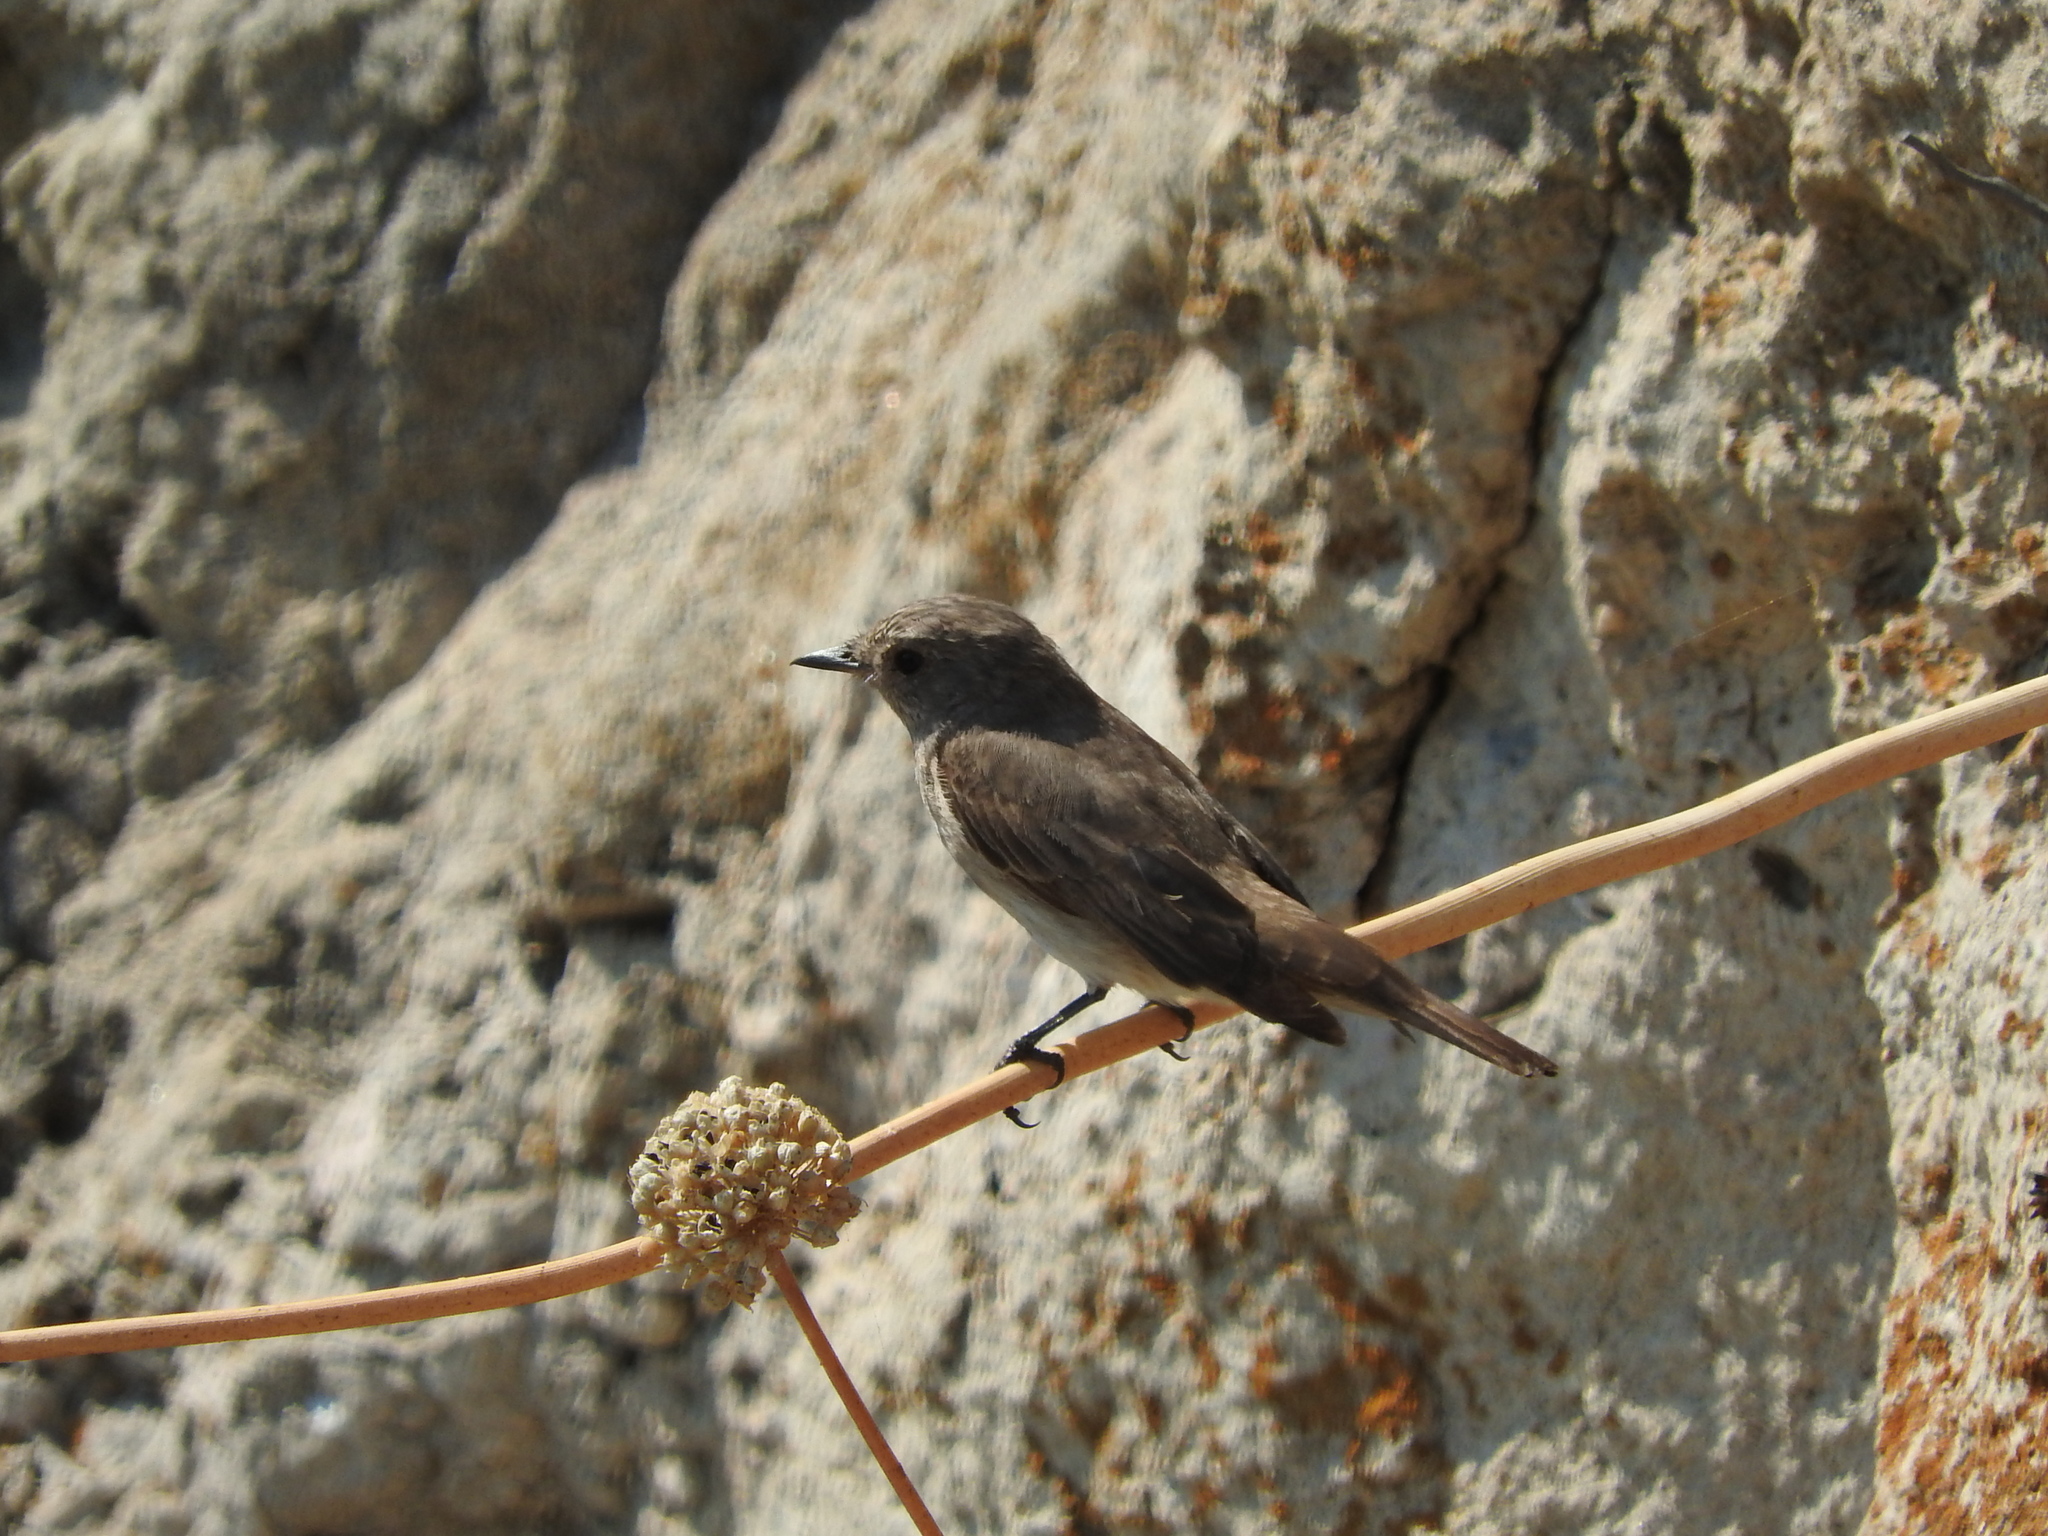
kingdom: Animalia
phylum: Chordata
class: Aves
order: Passeriformes
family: Muscicapidae
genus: Muscicapa
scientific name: Muscicapa striata
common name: Spotted flycatcher
